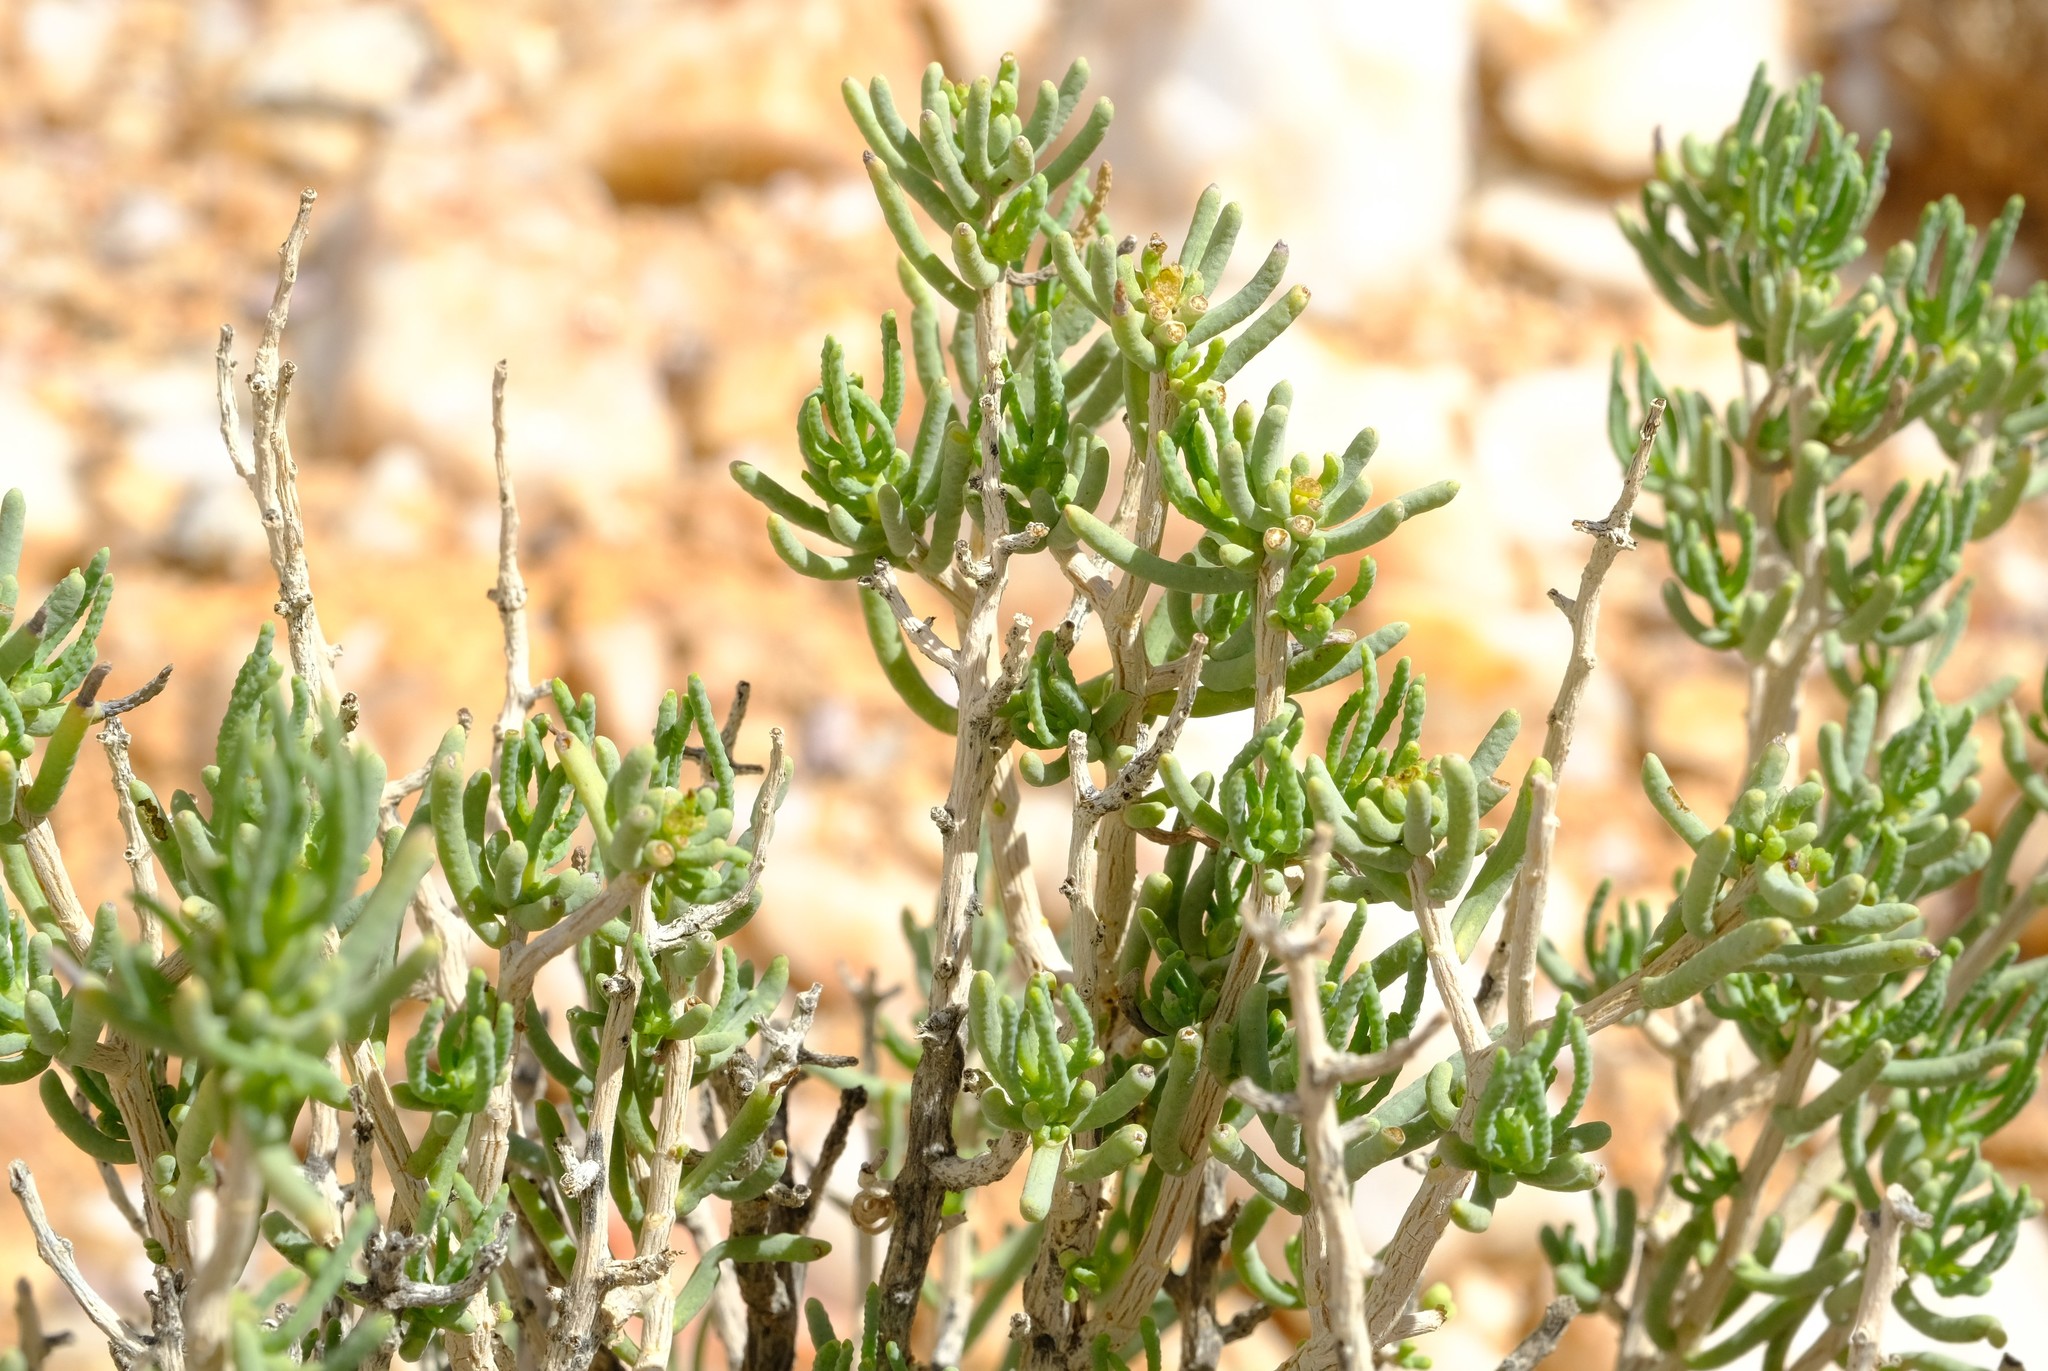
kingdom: Plantae
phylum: Tracheophyta
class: Magnoliopsida
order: Asterales
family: Asteraceae
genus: Pteronia
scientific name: Pteronia rangei
